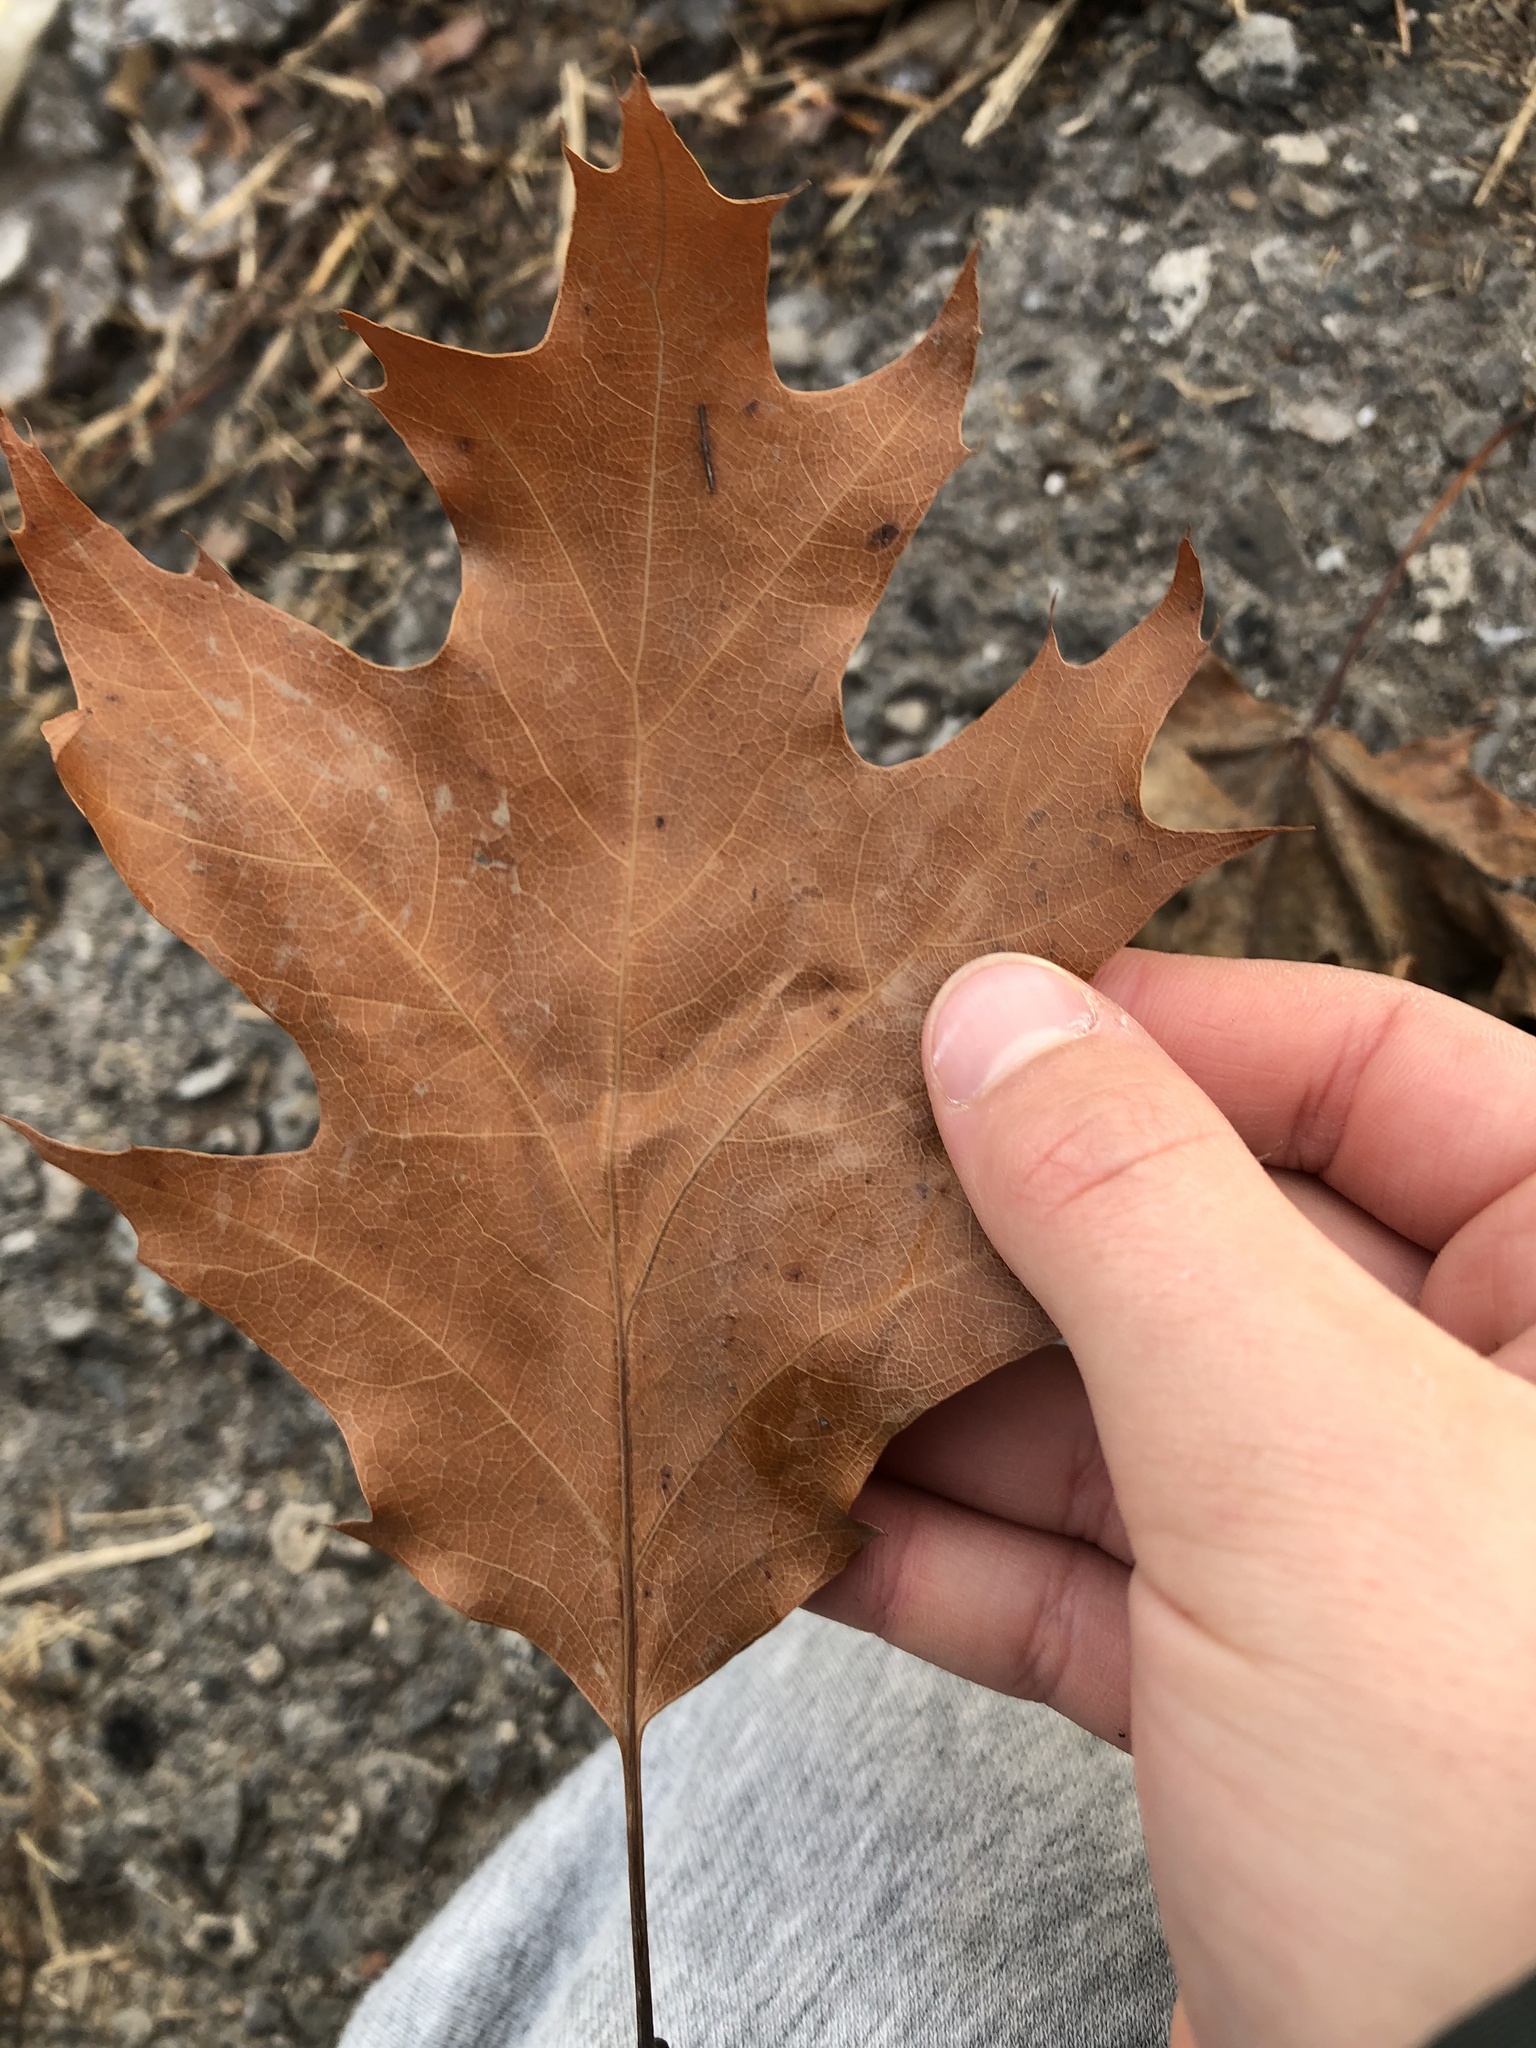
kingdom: Plantae
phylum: Tracheophyta
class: Magnoliopsida
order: Fagales
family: Fagaceae
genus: Quercus
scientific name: Quercus rubra
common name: Red oak
